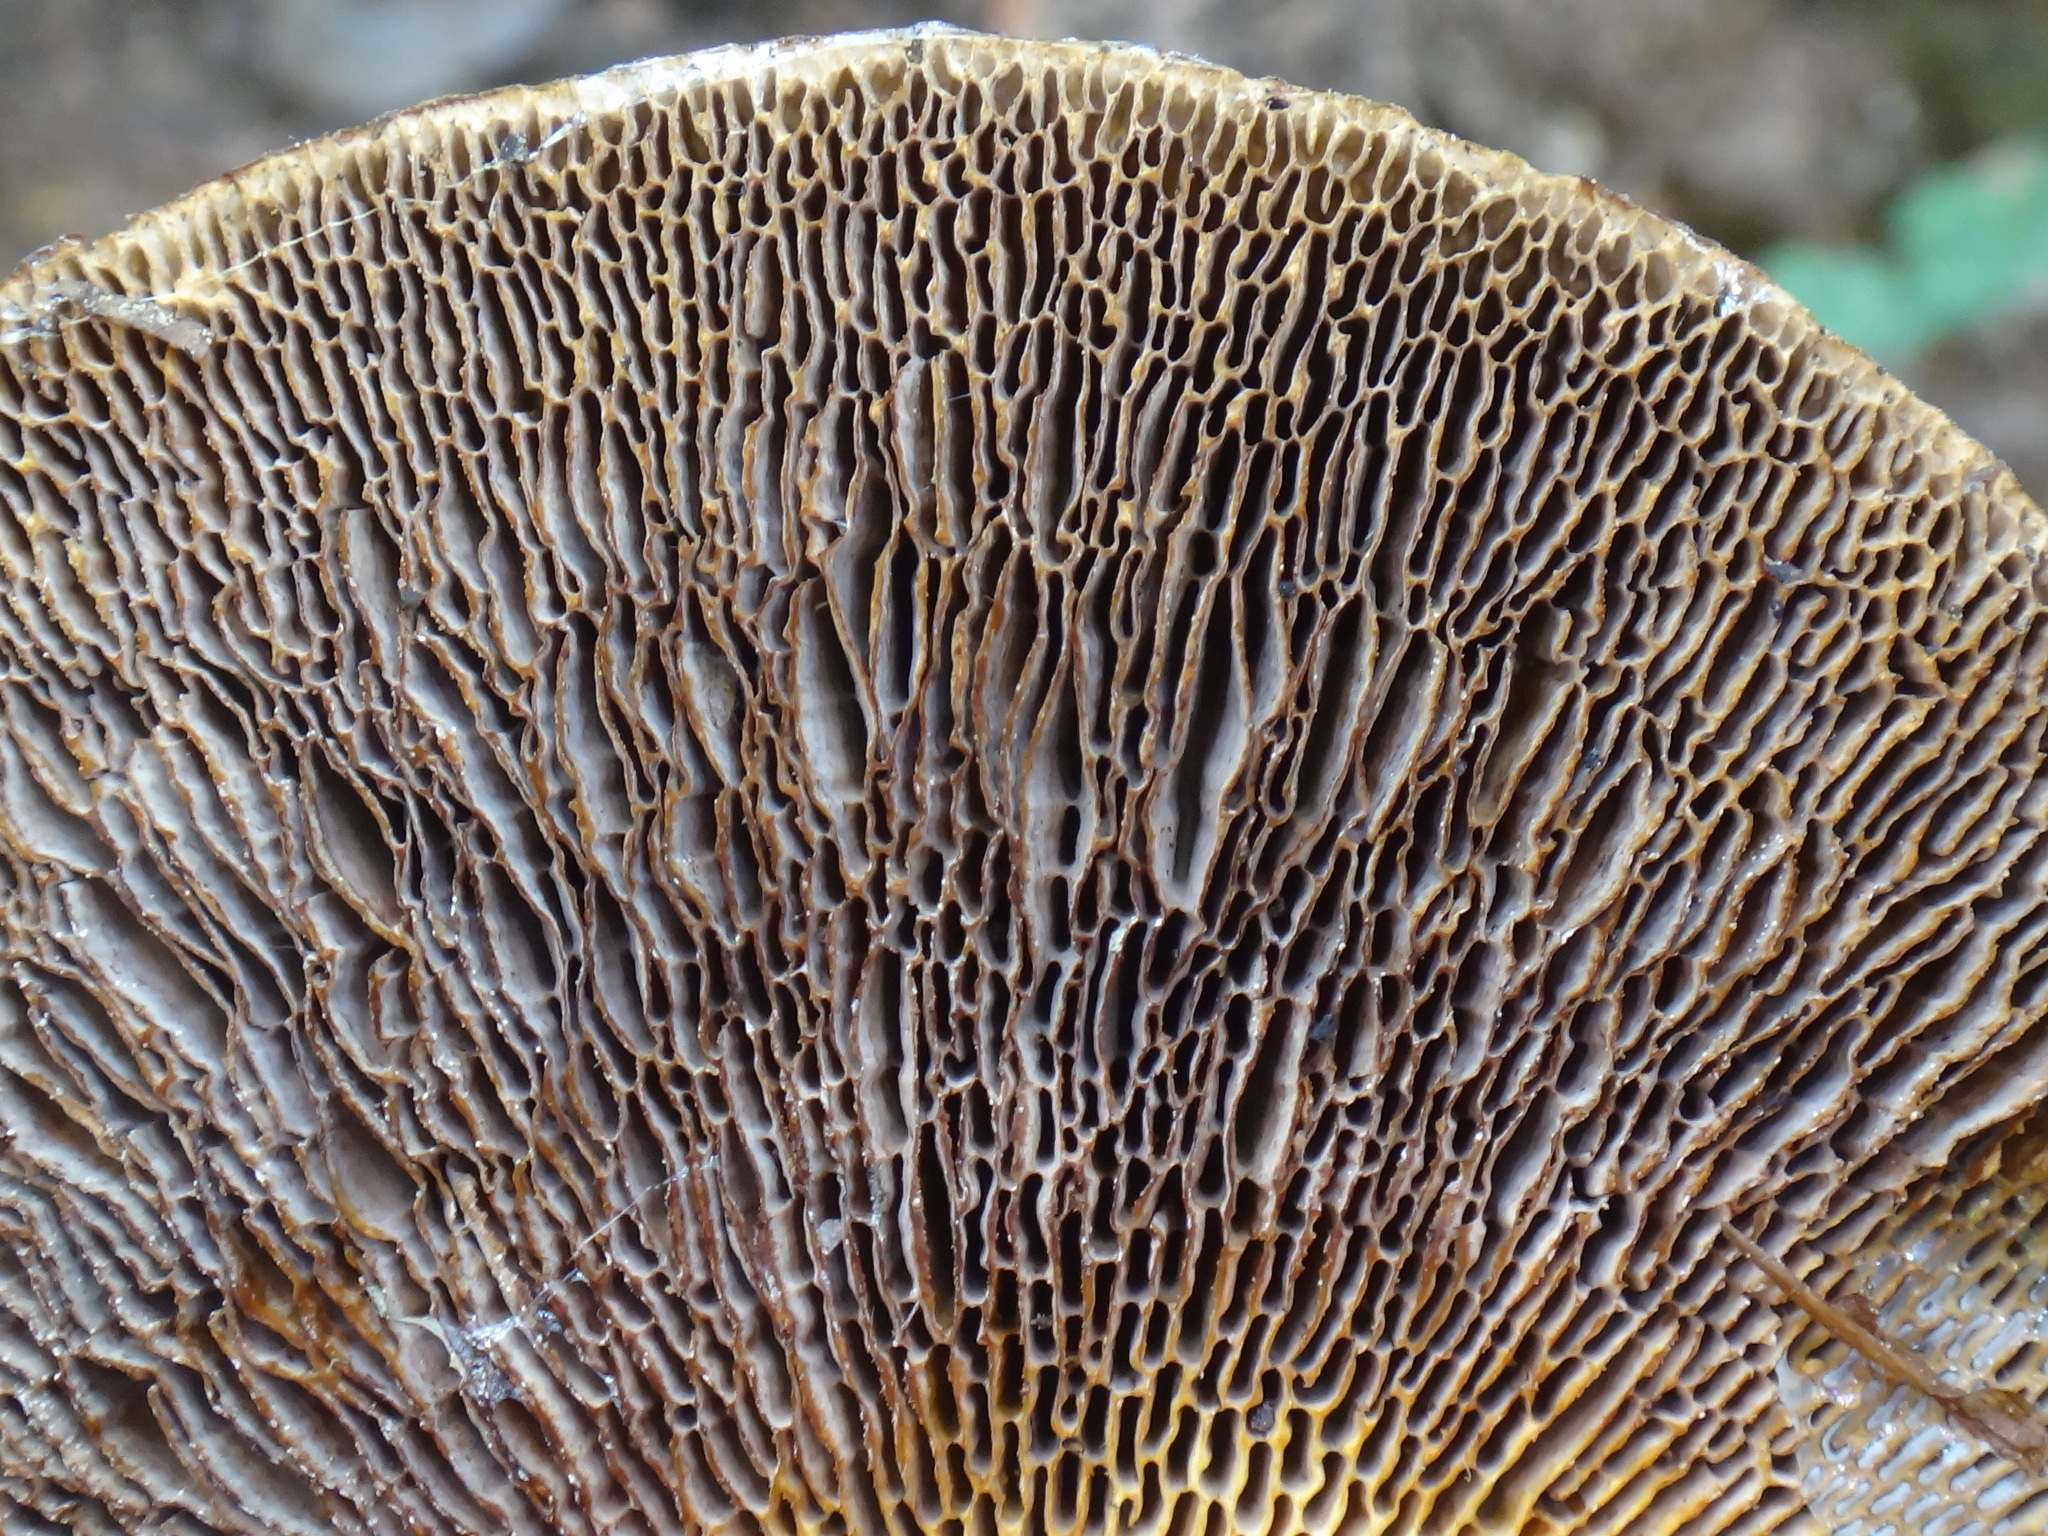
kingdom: Fungi
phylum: Basidiomycota
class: Agaricomycetes
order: Polyporales
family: Polyporaceae
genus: Daedaleopsis
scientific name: Daedaleopsis confragosa
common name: Blushing bracket
